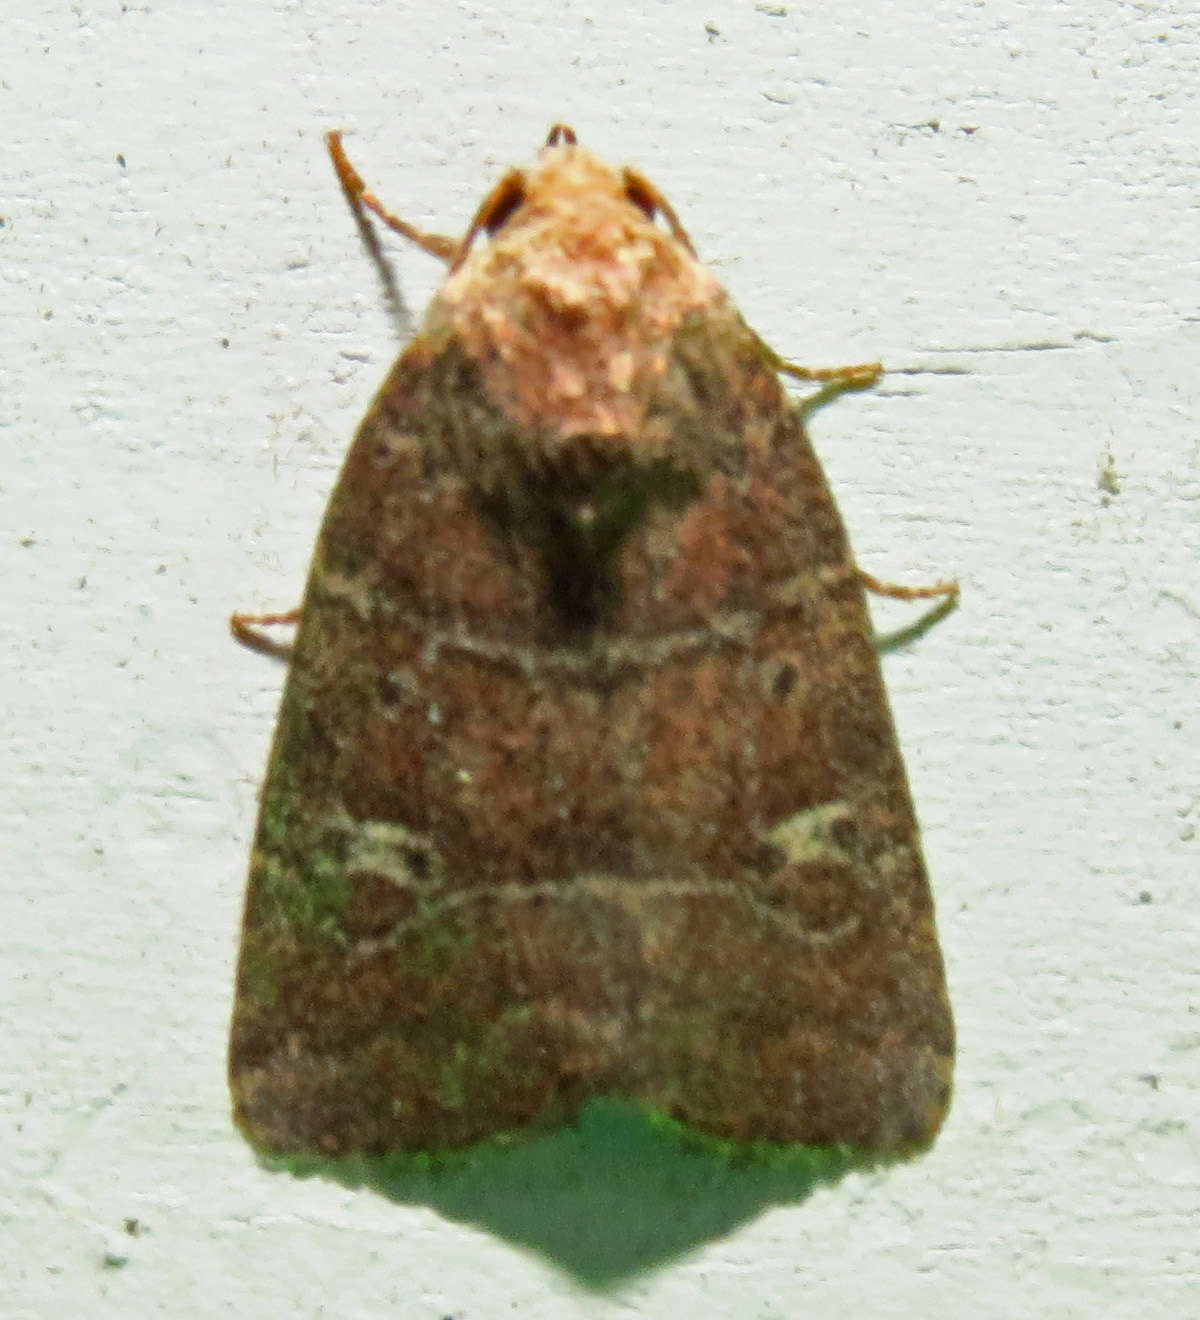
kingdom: Animalia
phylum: Arthropoda
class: Insecta
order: Lepidoptera
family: Noctuidae
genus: Elaphria
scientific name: Elaphria grata
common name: Grateful midget moth
